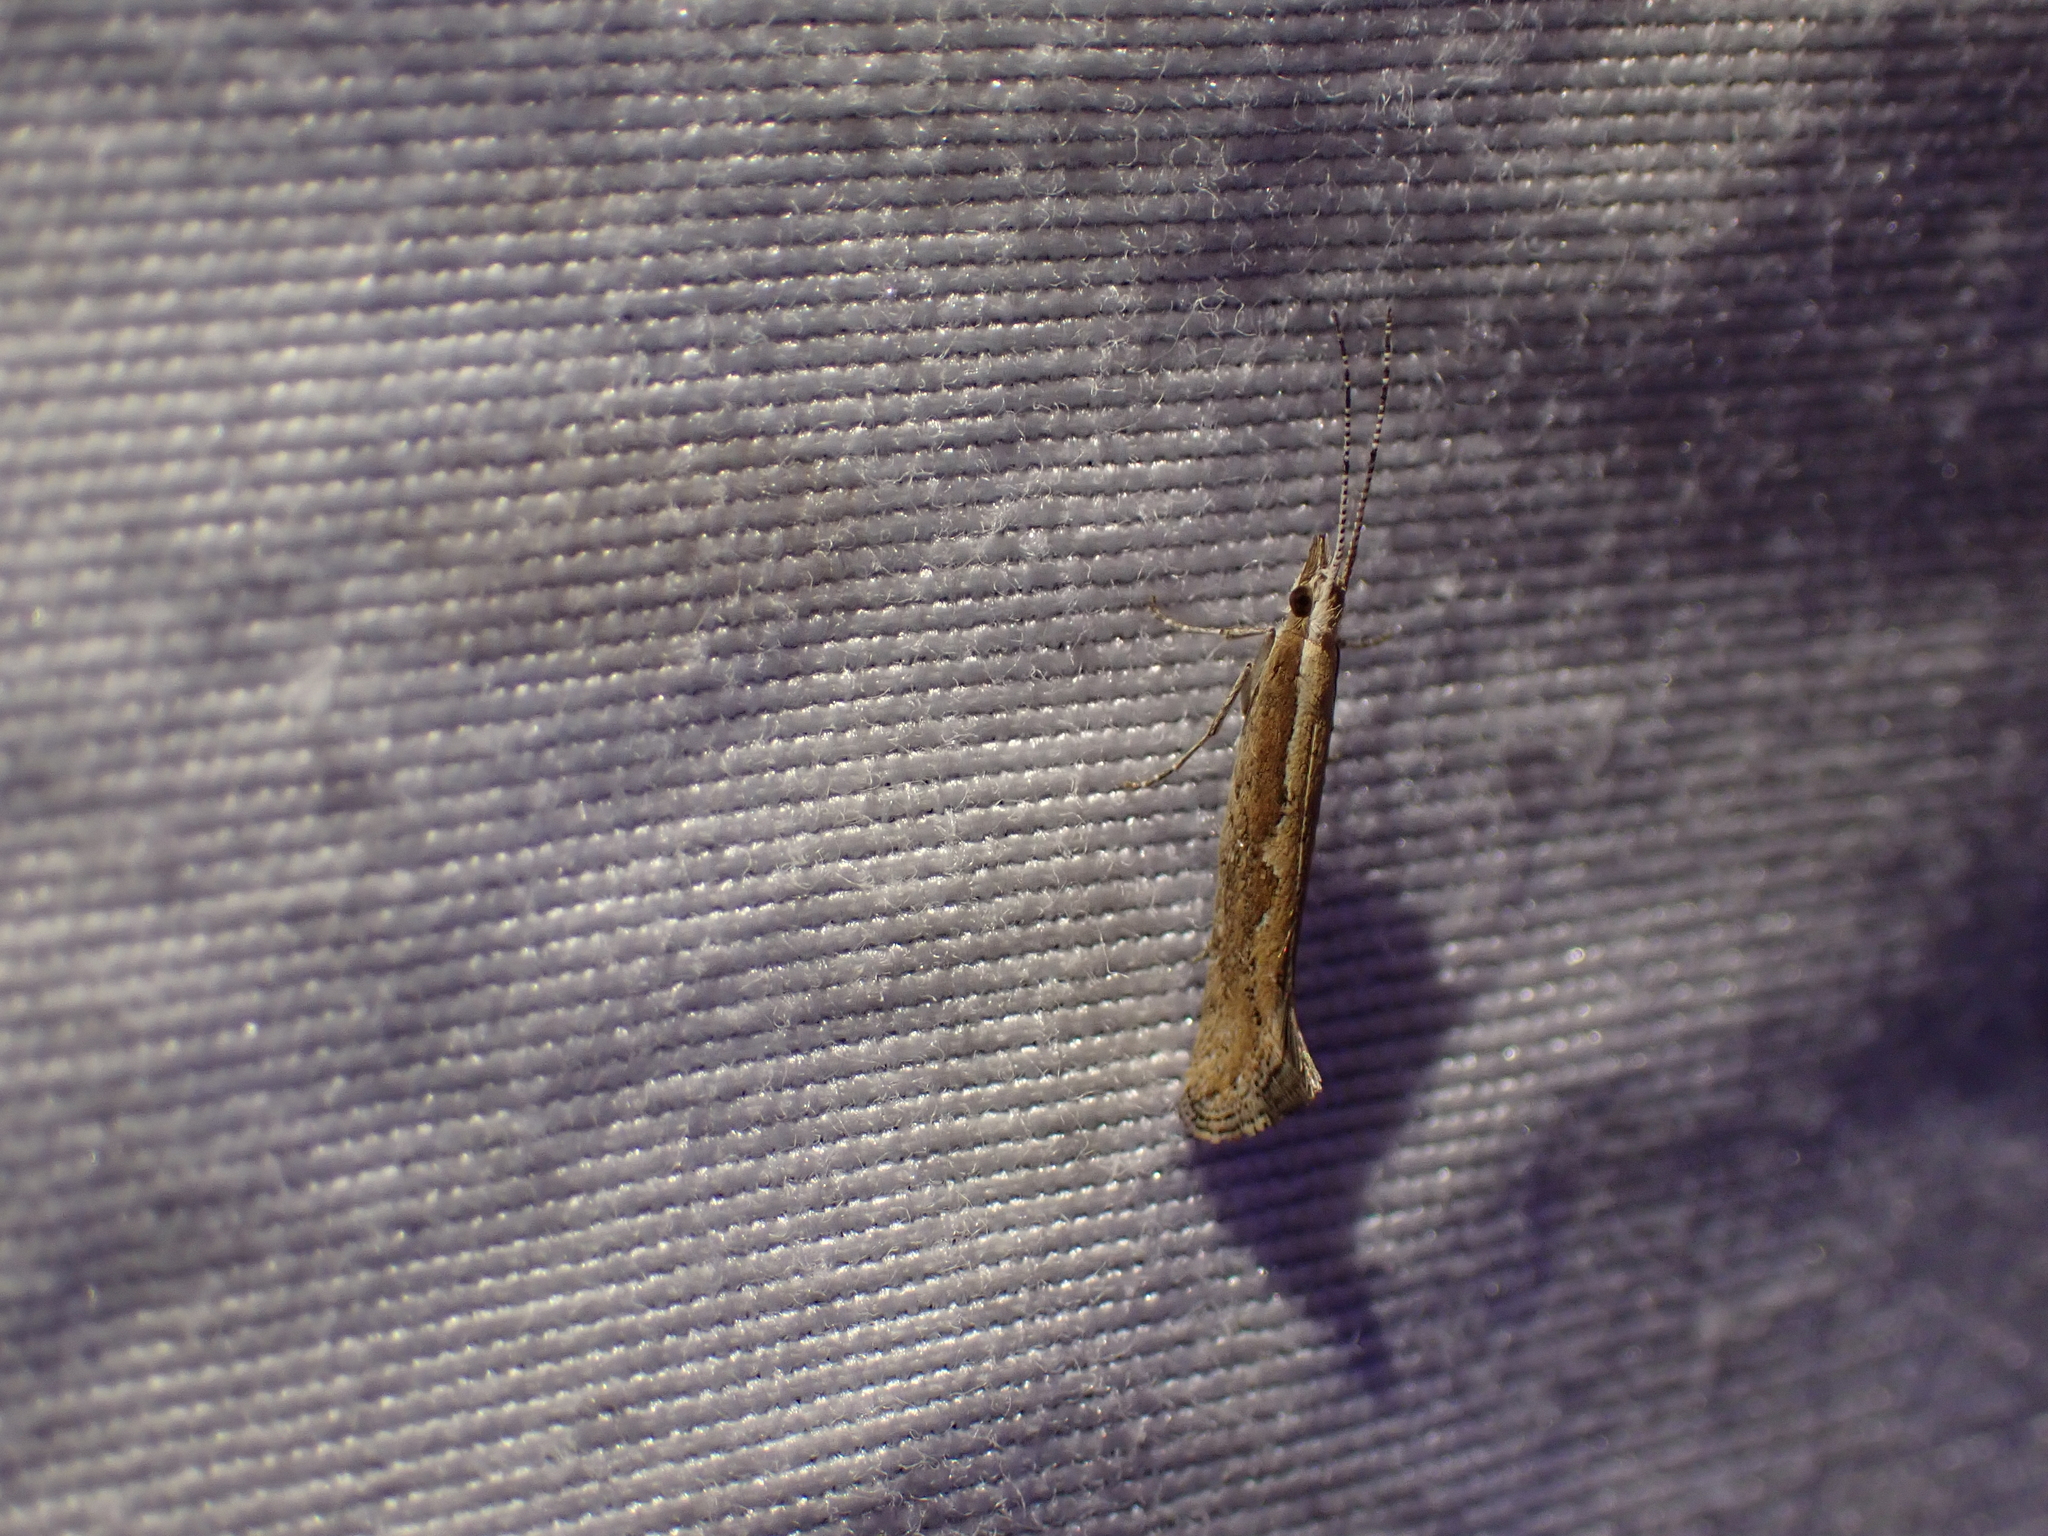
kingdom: Animalia
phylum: Arthropoda
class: Insecta
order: Lepidoptera
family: Plutellidae
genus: Plutella
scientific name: Plutella xylostella
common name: Diamond-back moth
